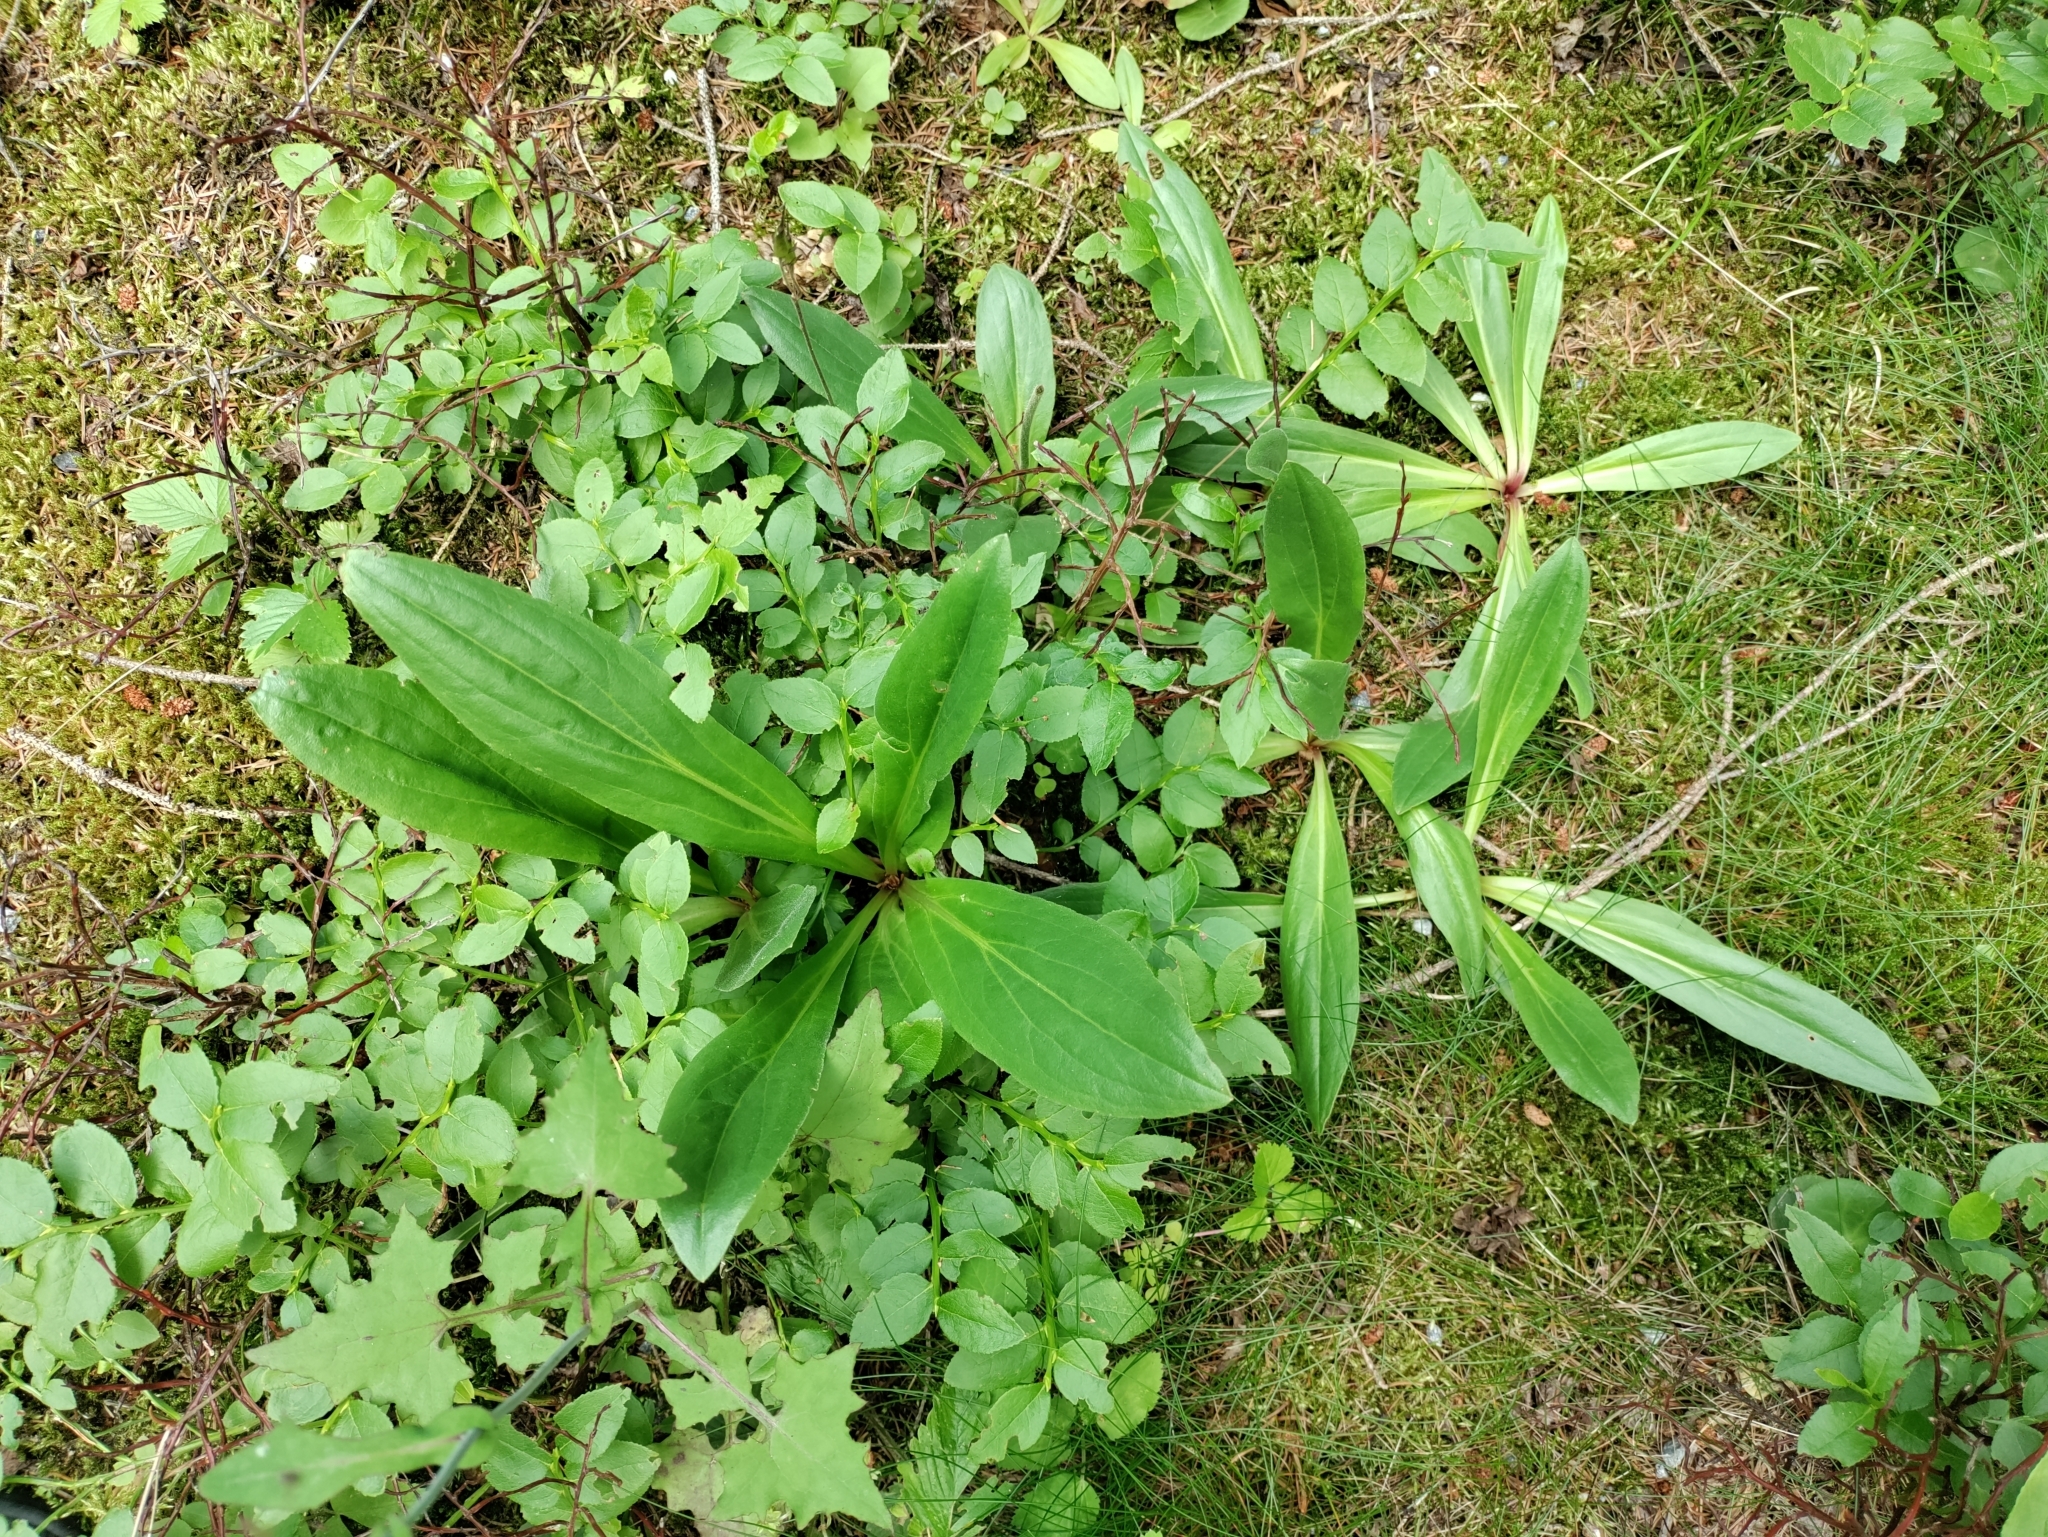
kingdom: Plantae
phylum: Tracheophyta
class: Magnoliopsida
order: Asterales
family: Asteraceae
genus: Arnica
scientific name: Arnica montana
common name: Leopard's bane
